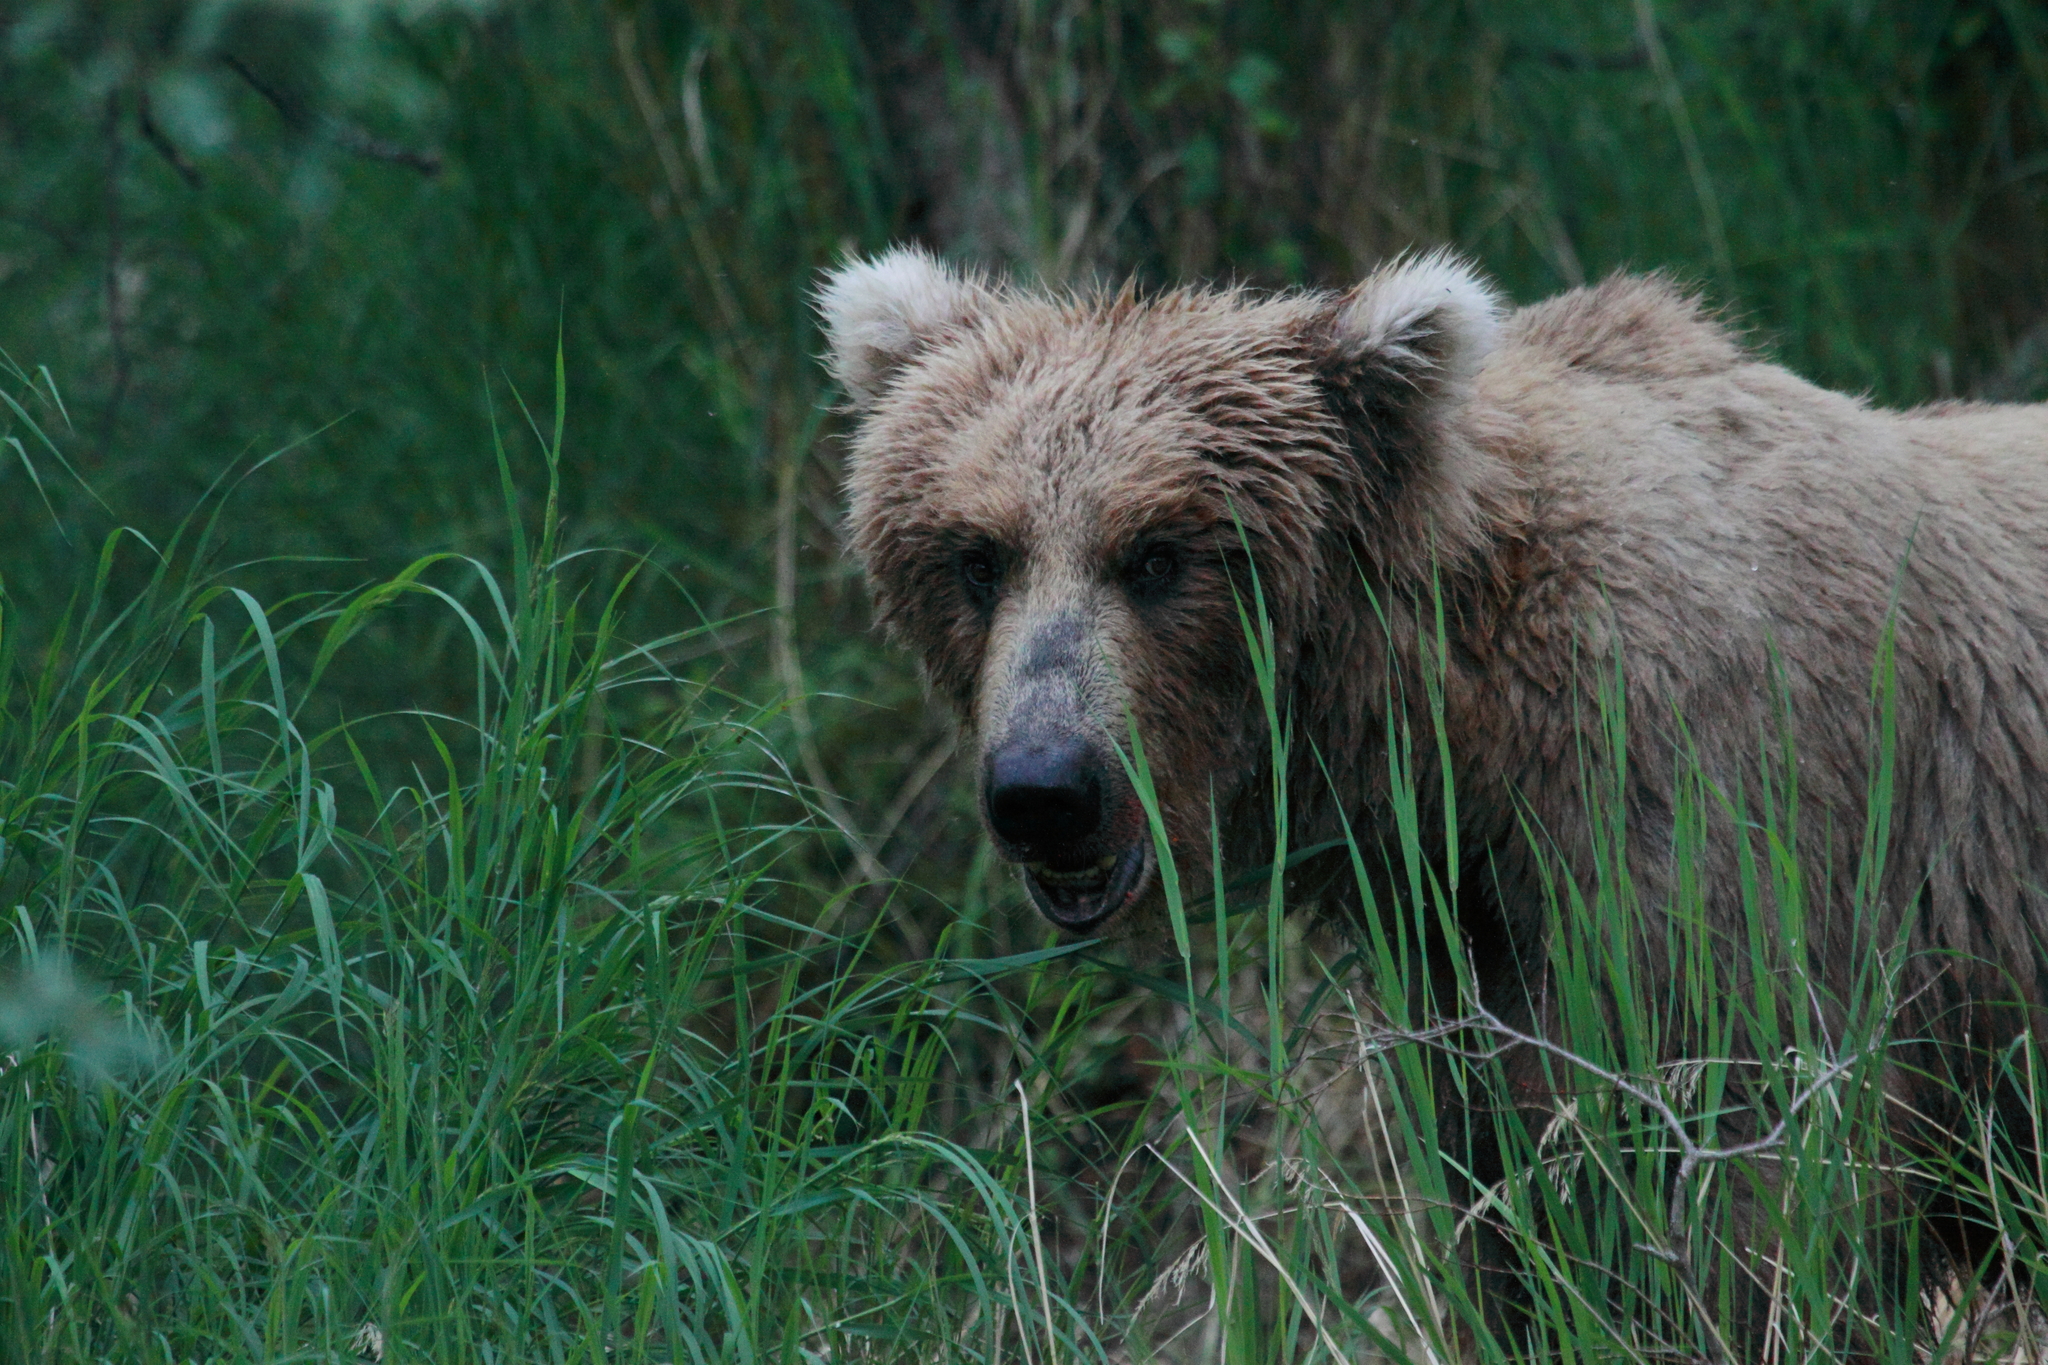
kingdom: Animalia
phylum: Chordata
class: Mammalia
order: Carnivora
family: Ursidae
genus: Ursus
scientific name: Ursus arctos
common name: Brown bear
